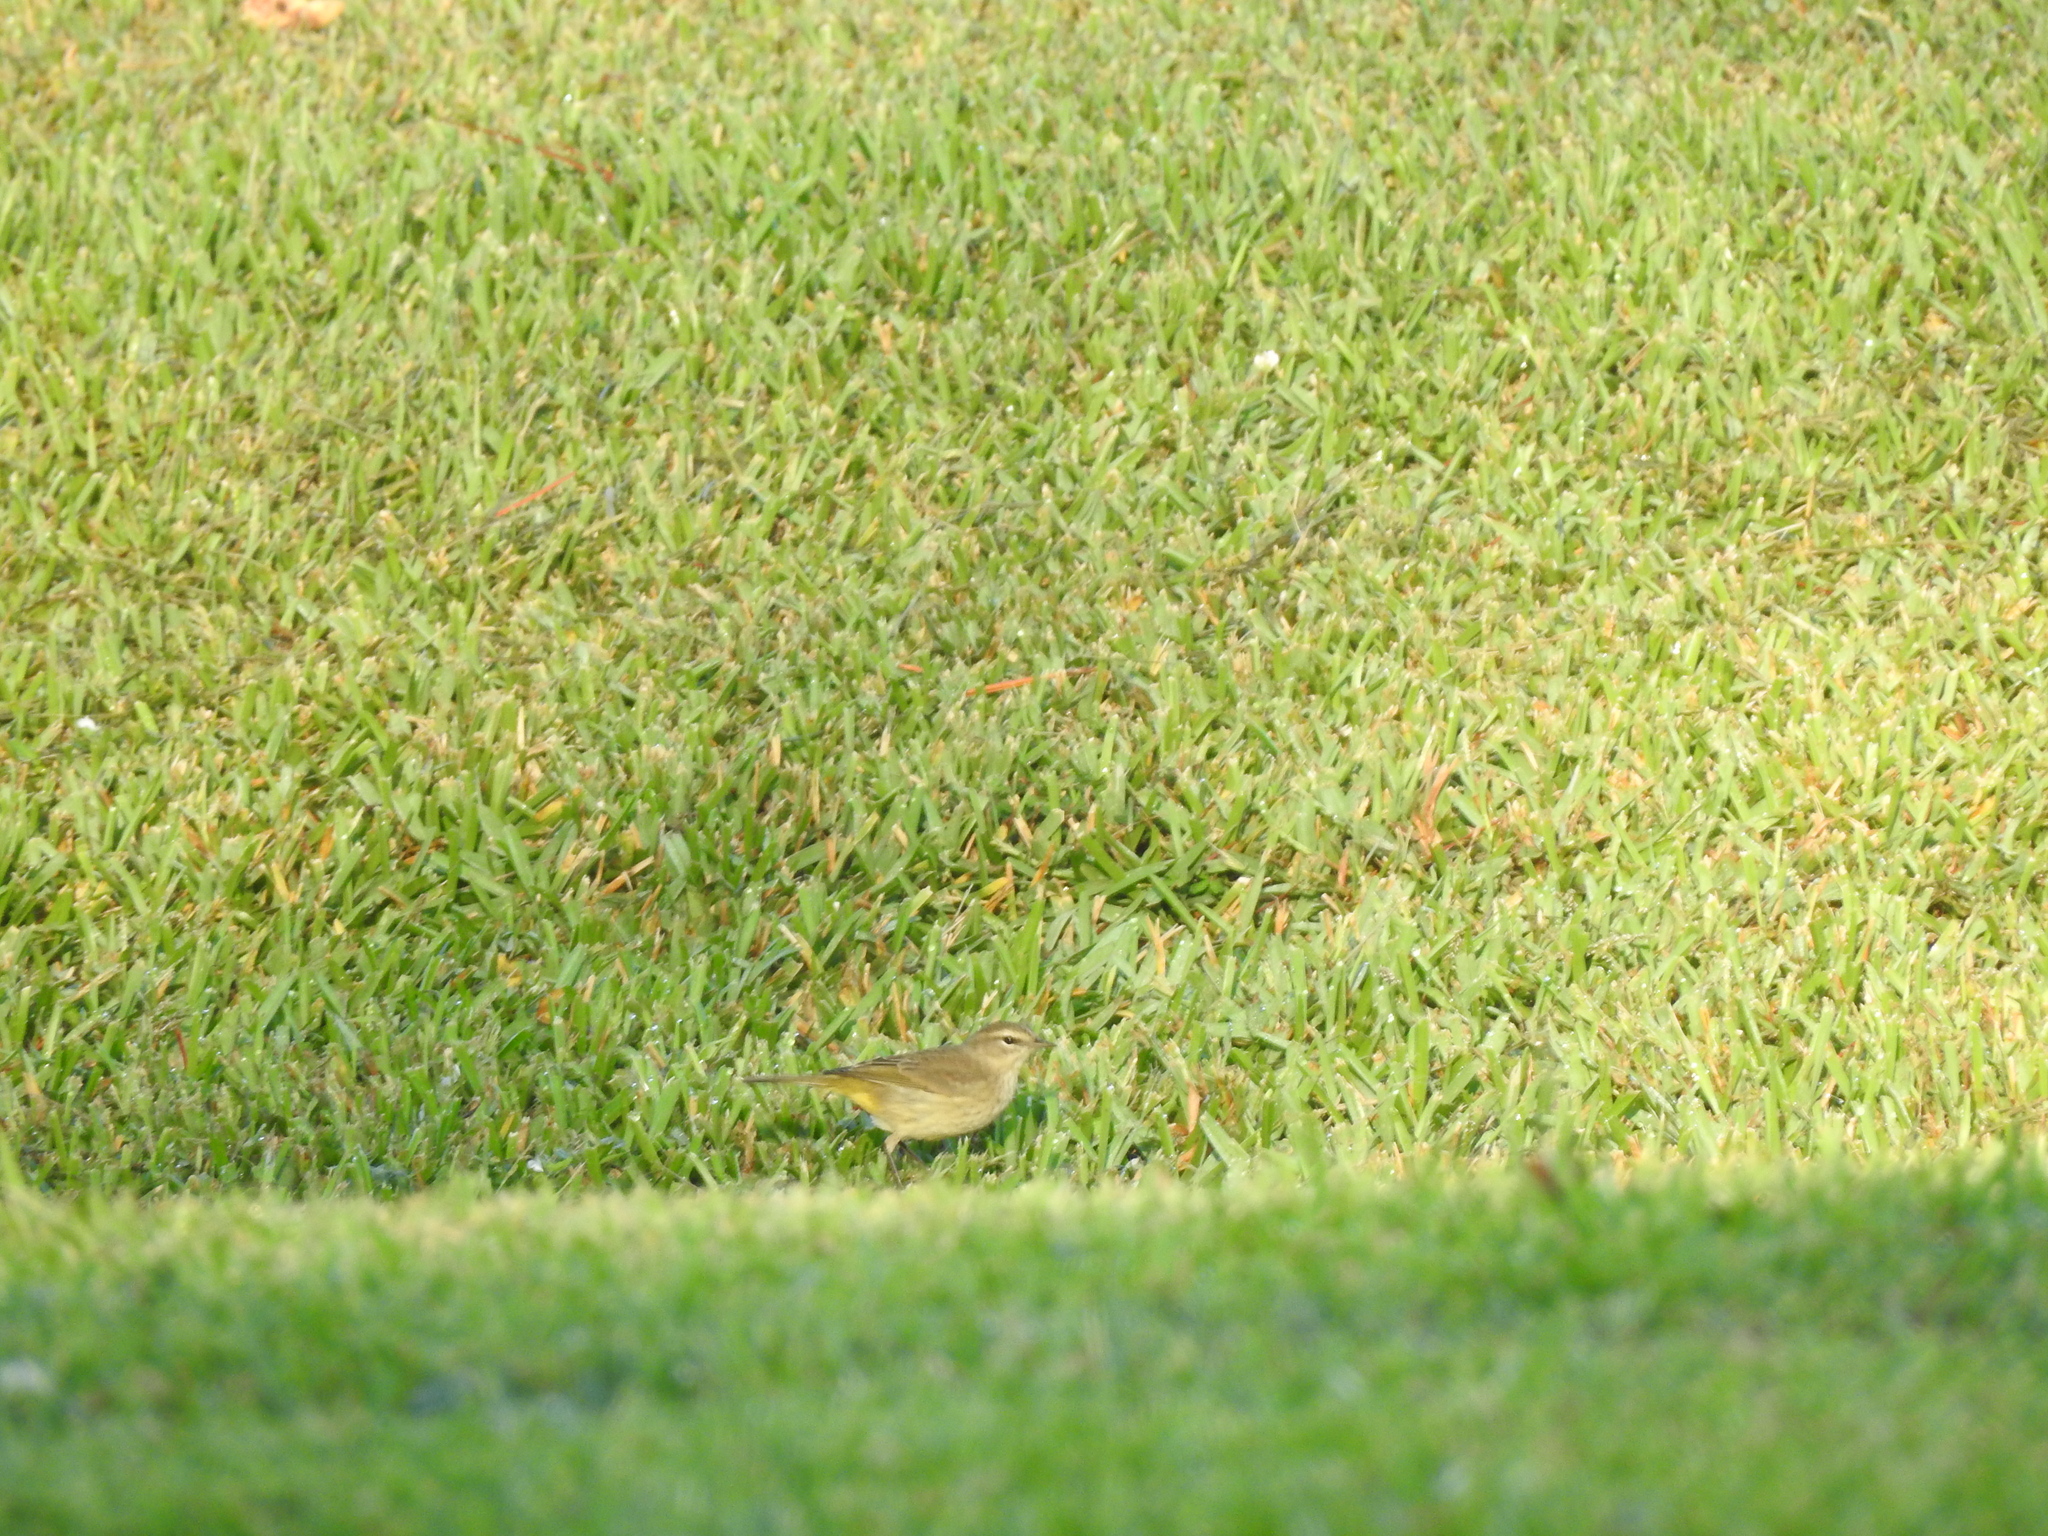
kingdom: Animalia
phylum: Chordata
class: Aves
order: Passeriformes
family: Parulidae
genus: Setophaga
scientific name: Setophaga palmarum
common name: Palm warbler
